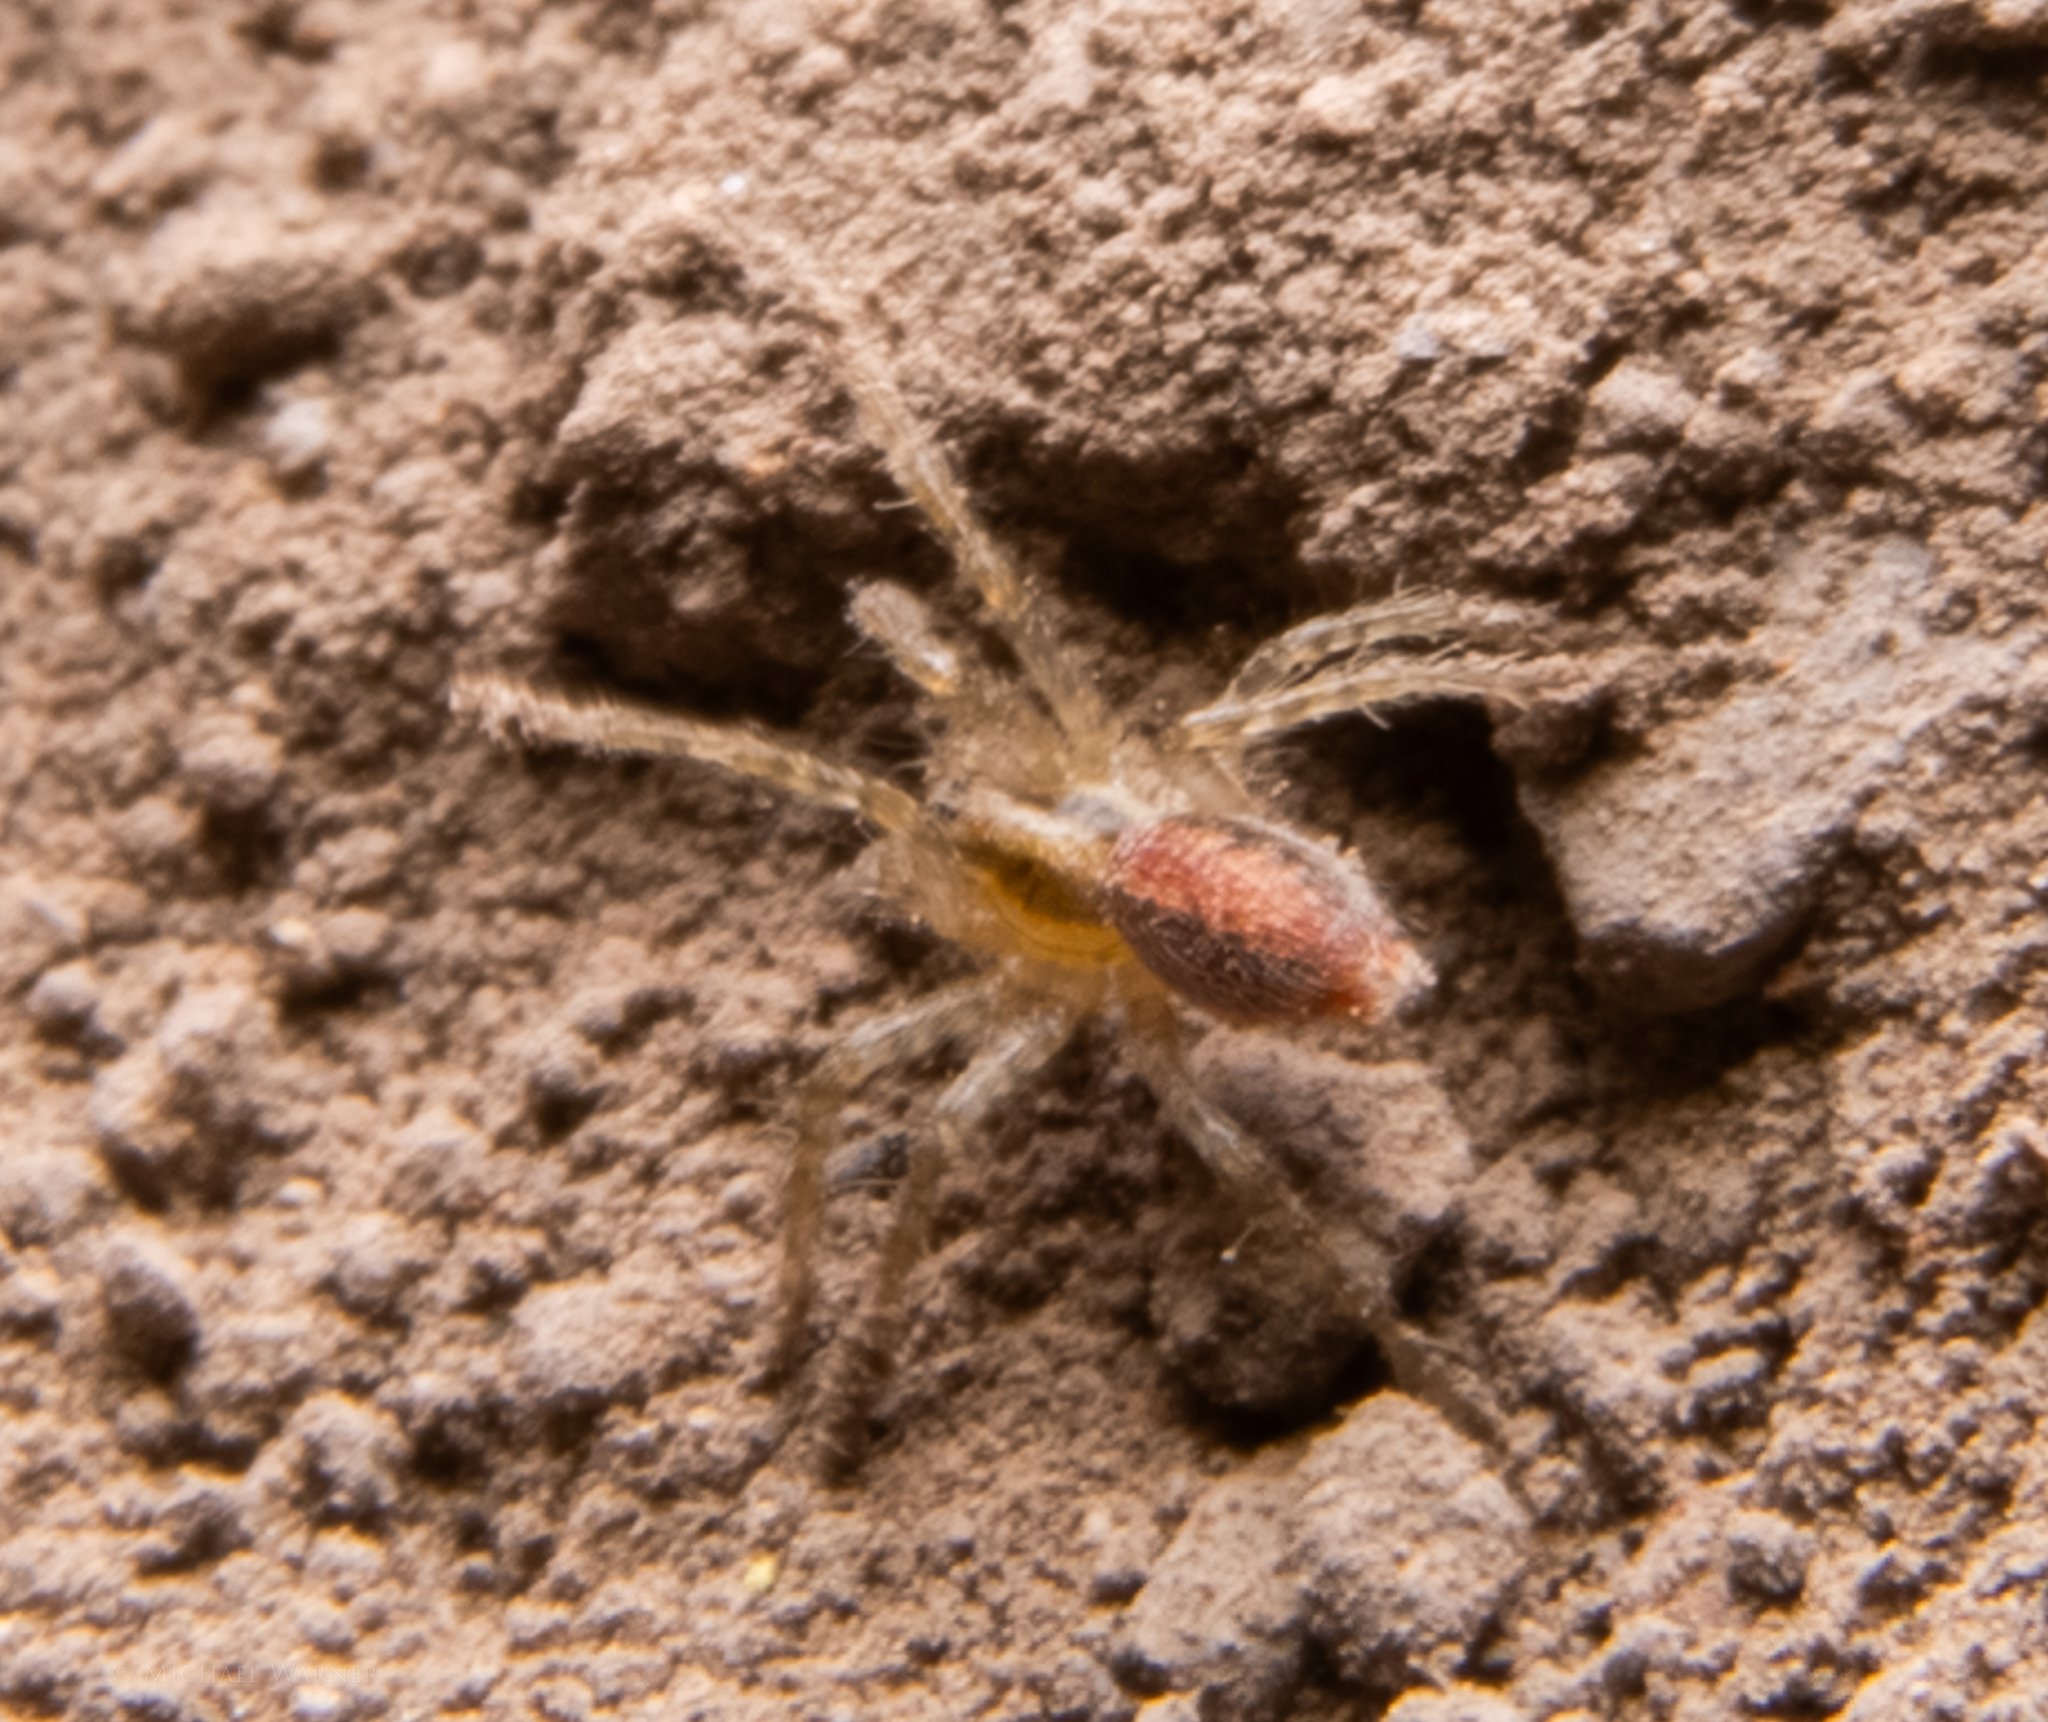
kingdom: Animalia
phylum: Arthropoda
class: Arachnida
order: Araneae
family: Agelenidae
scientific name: Agelenidae
